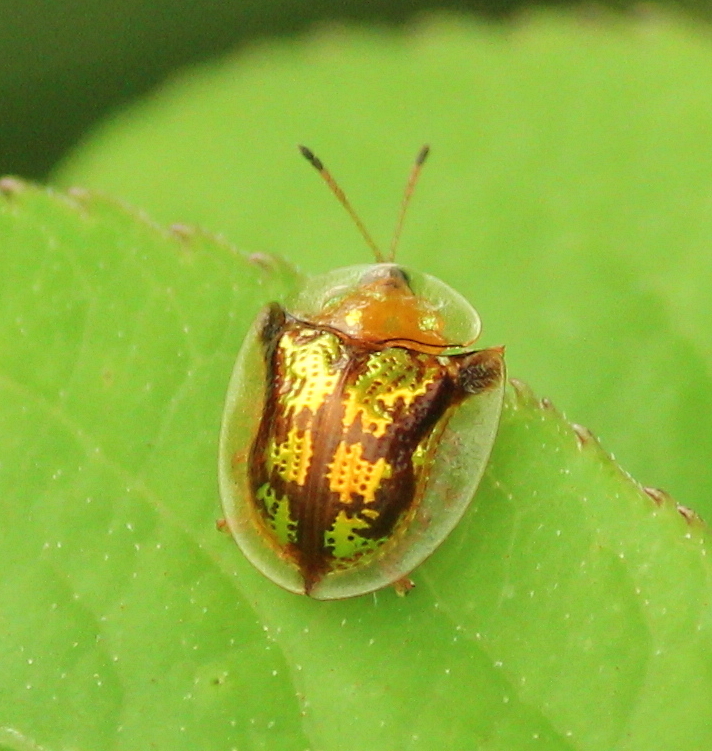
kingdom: Animalia
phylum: Arthropoda
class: Insecta
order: Coleoptera
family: Chrysomelidae
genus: Deloyala
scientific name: Deloyala guttata
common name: Mottled tortoise beetle
